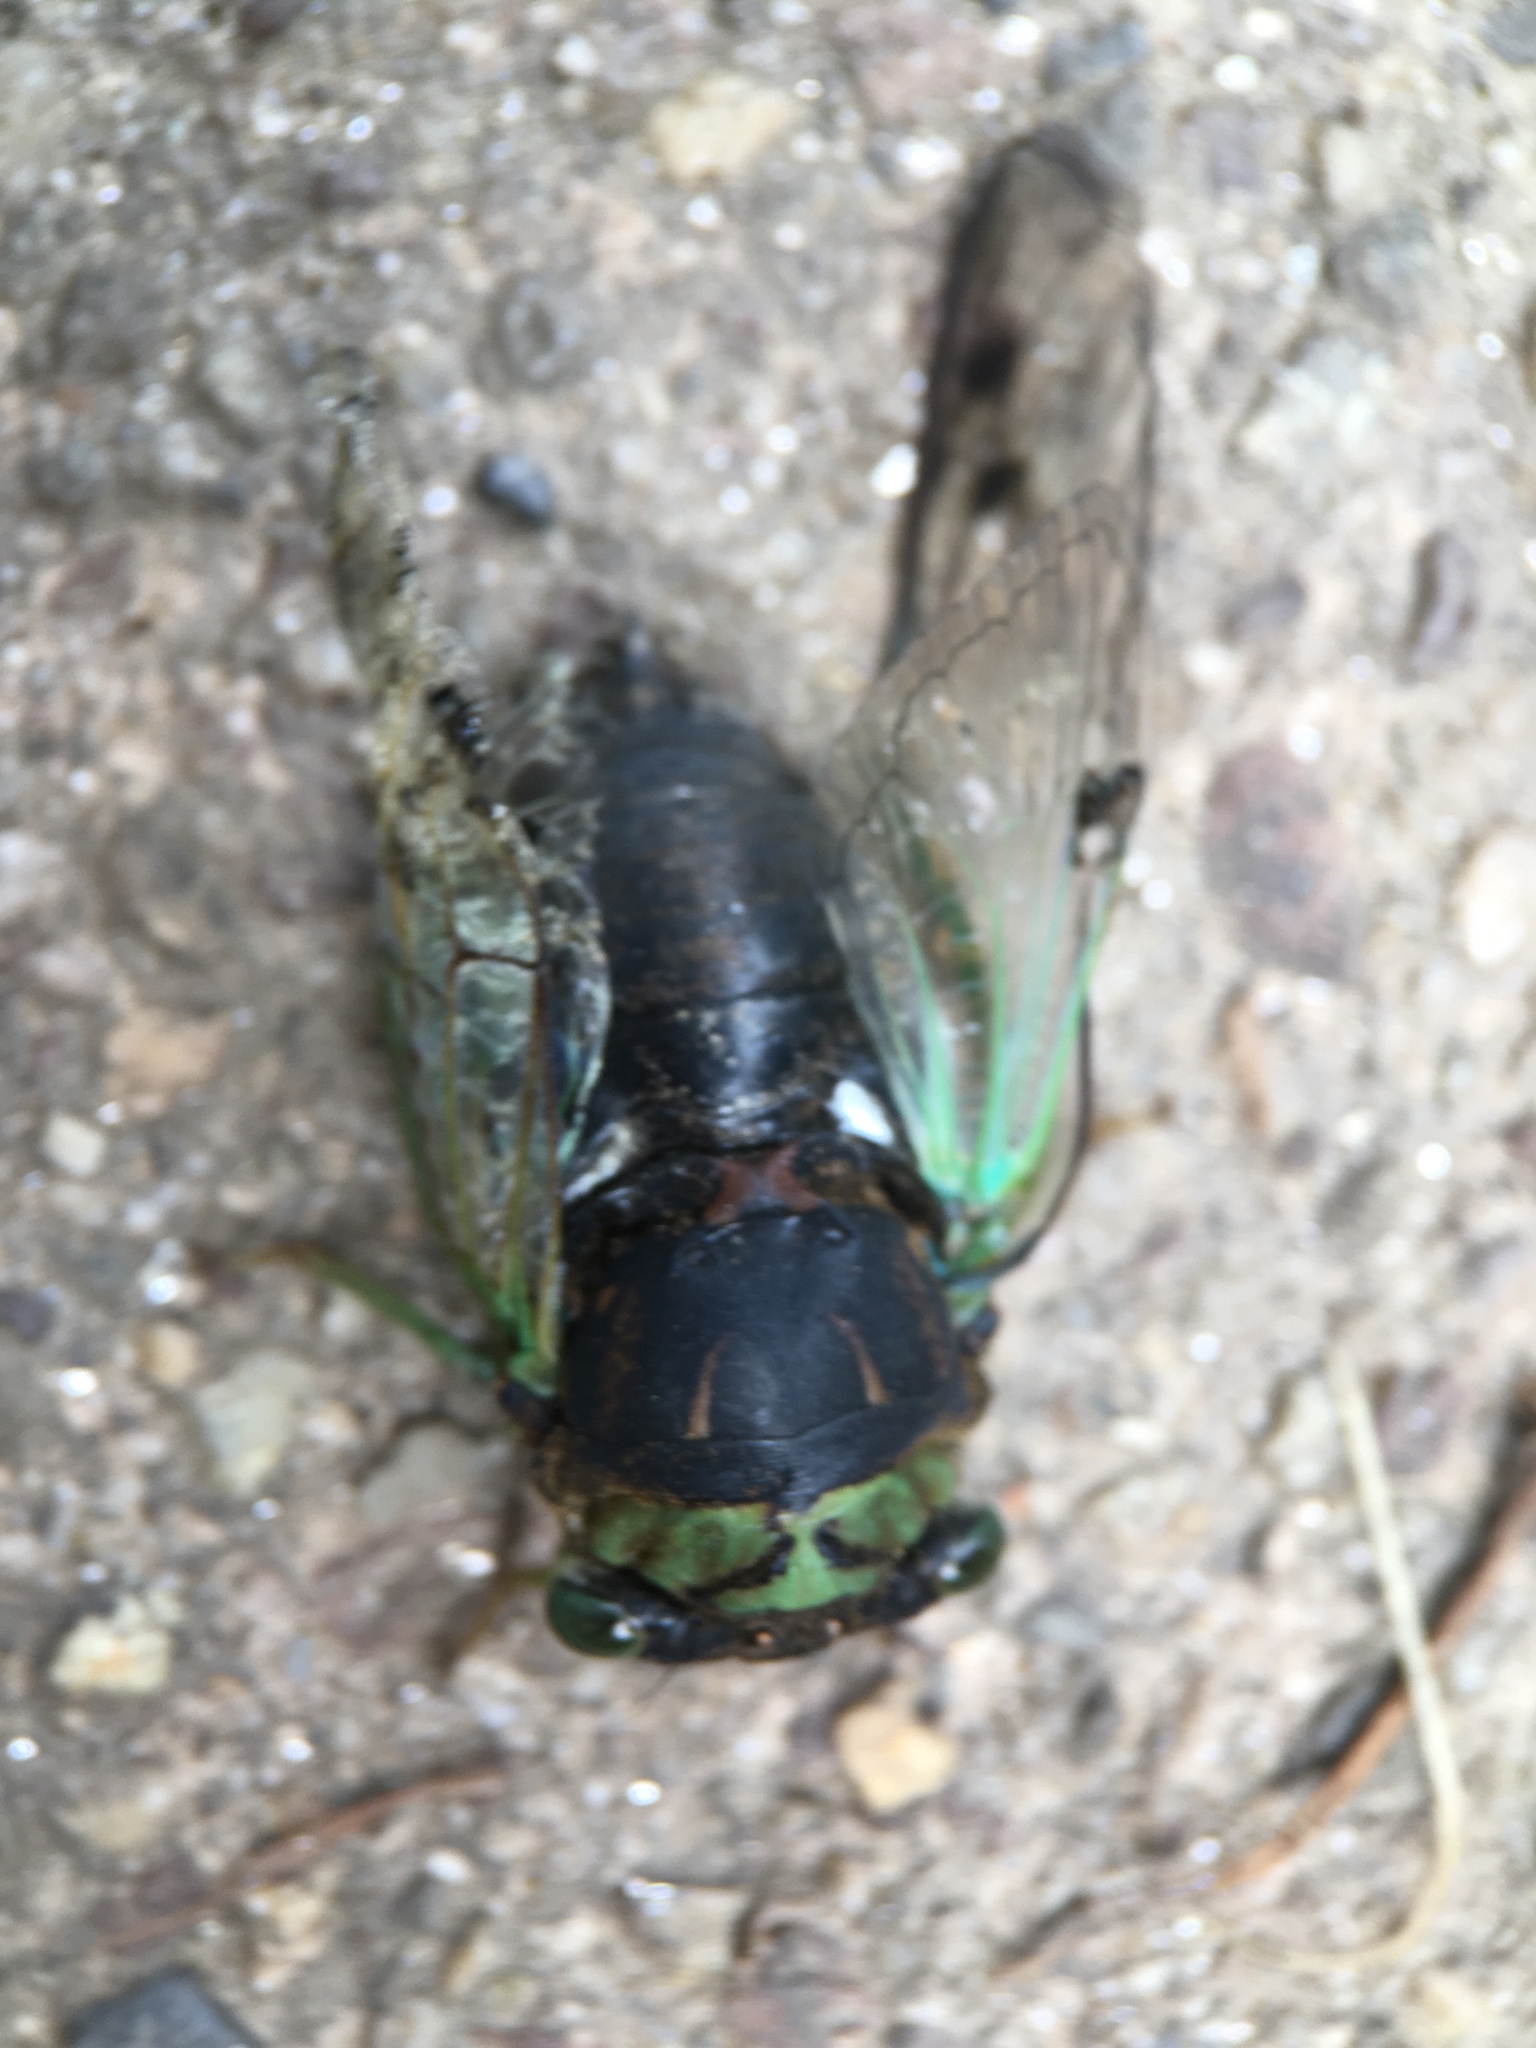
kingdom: Animalia
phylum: Arthropoda
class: Insecta
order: Hemiptera
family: Cicadidae
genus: Neotibicen
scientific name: Neotibicen tibicen
